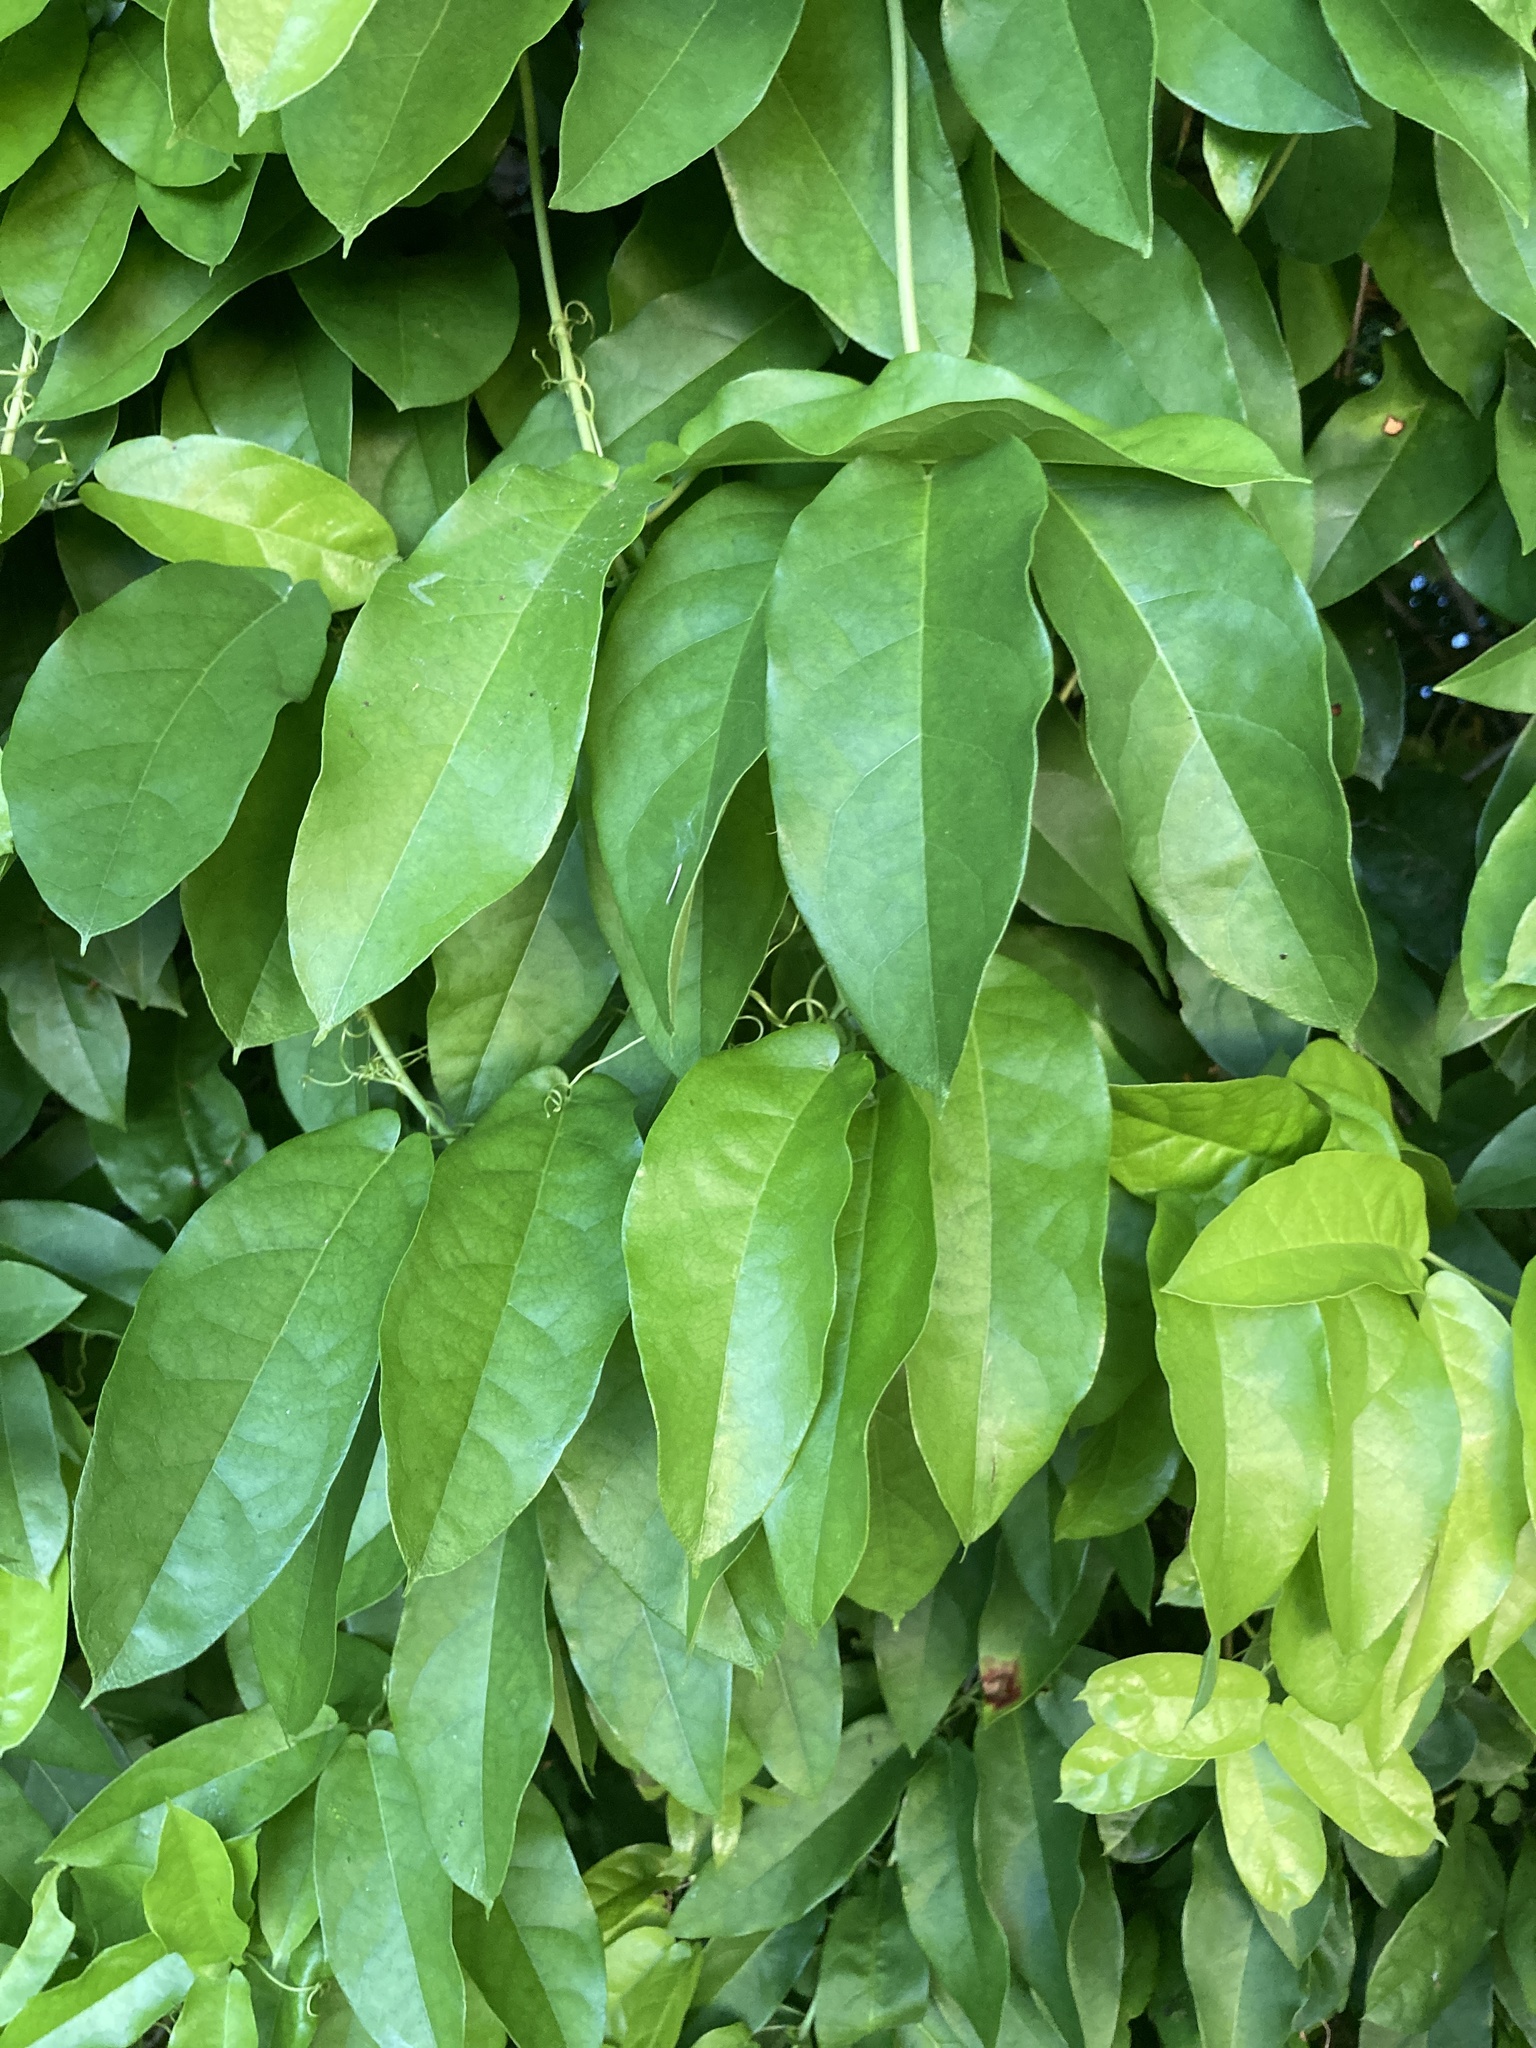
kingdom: Plantae
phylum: Tracheophyta
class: Magnoliopsida
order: Lamiales
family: Bignoniaceae
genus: Bignonia
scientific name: Bignonia capreolata
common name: Crossvine
